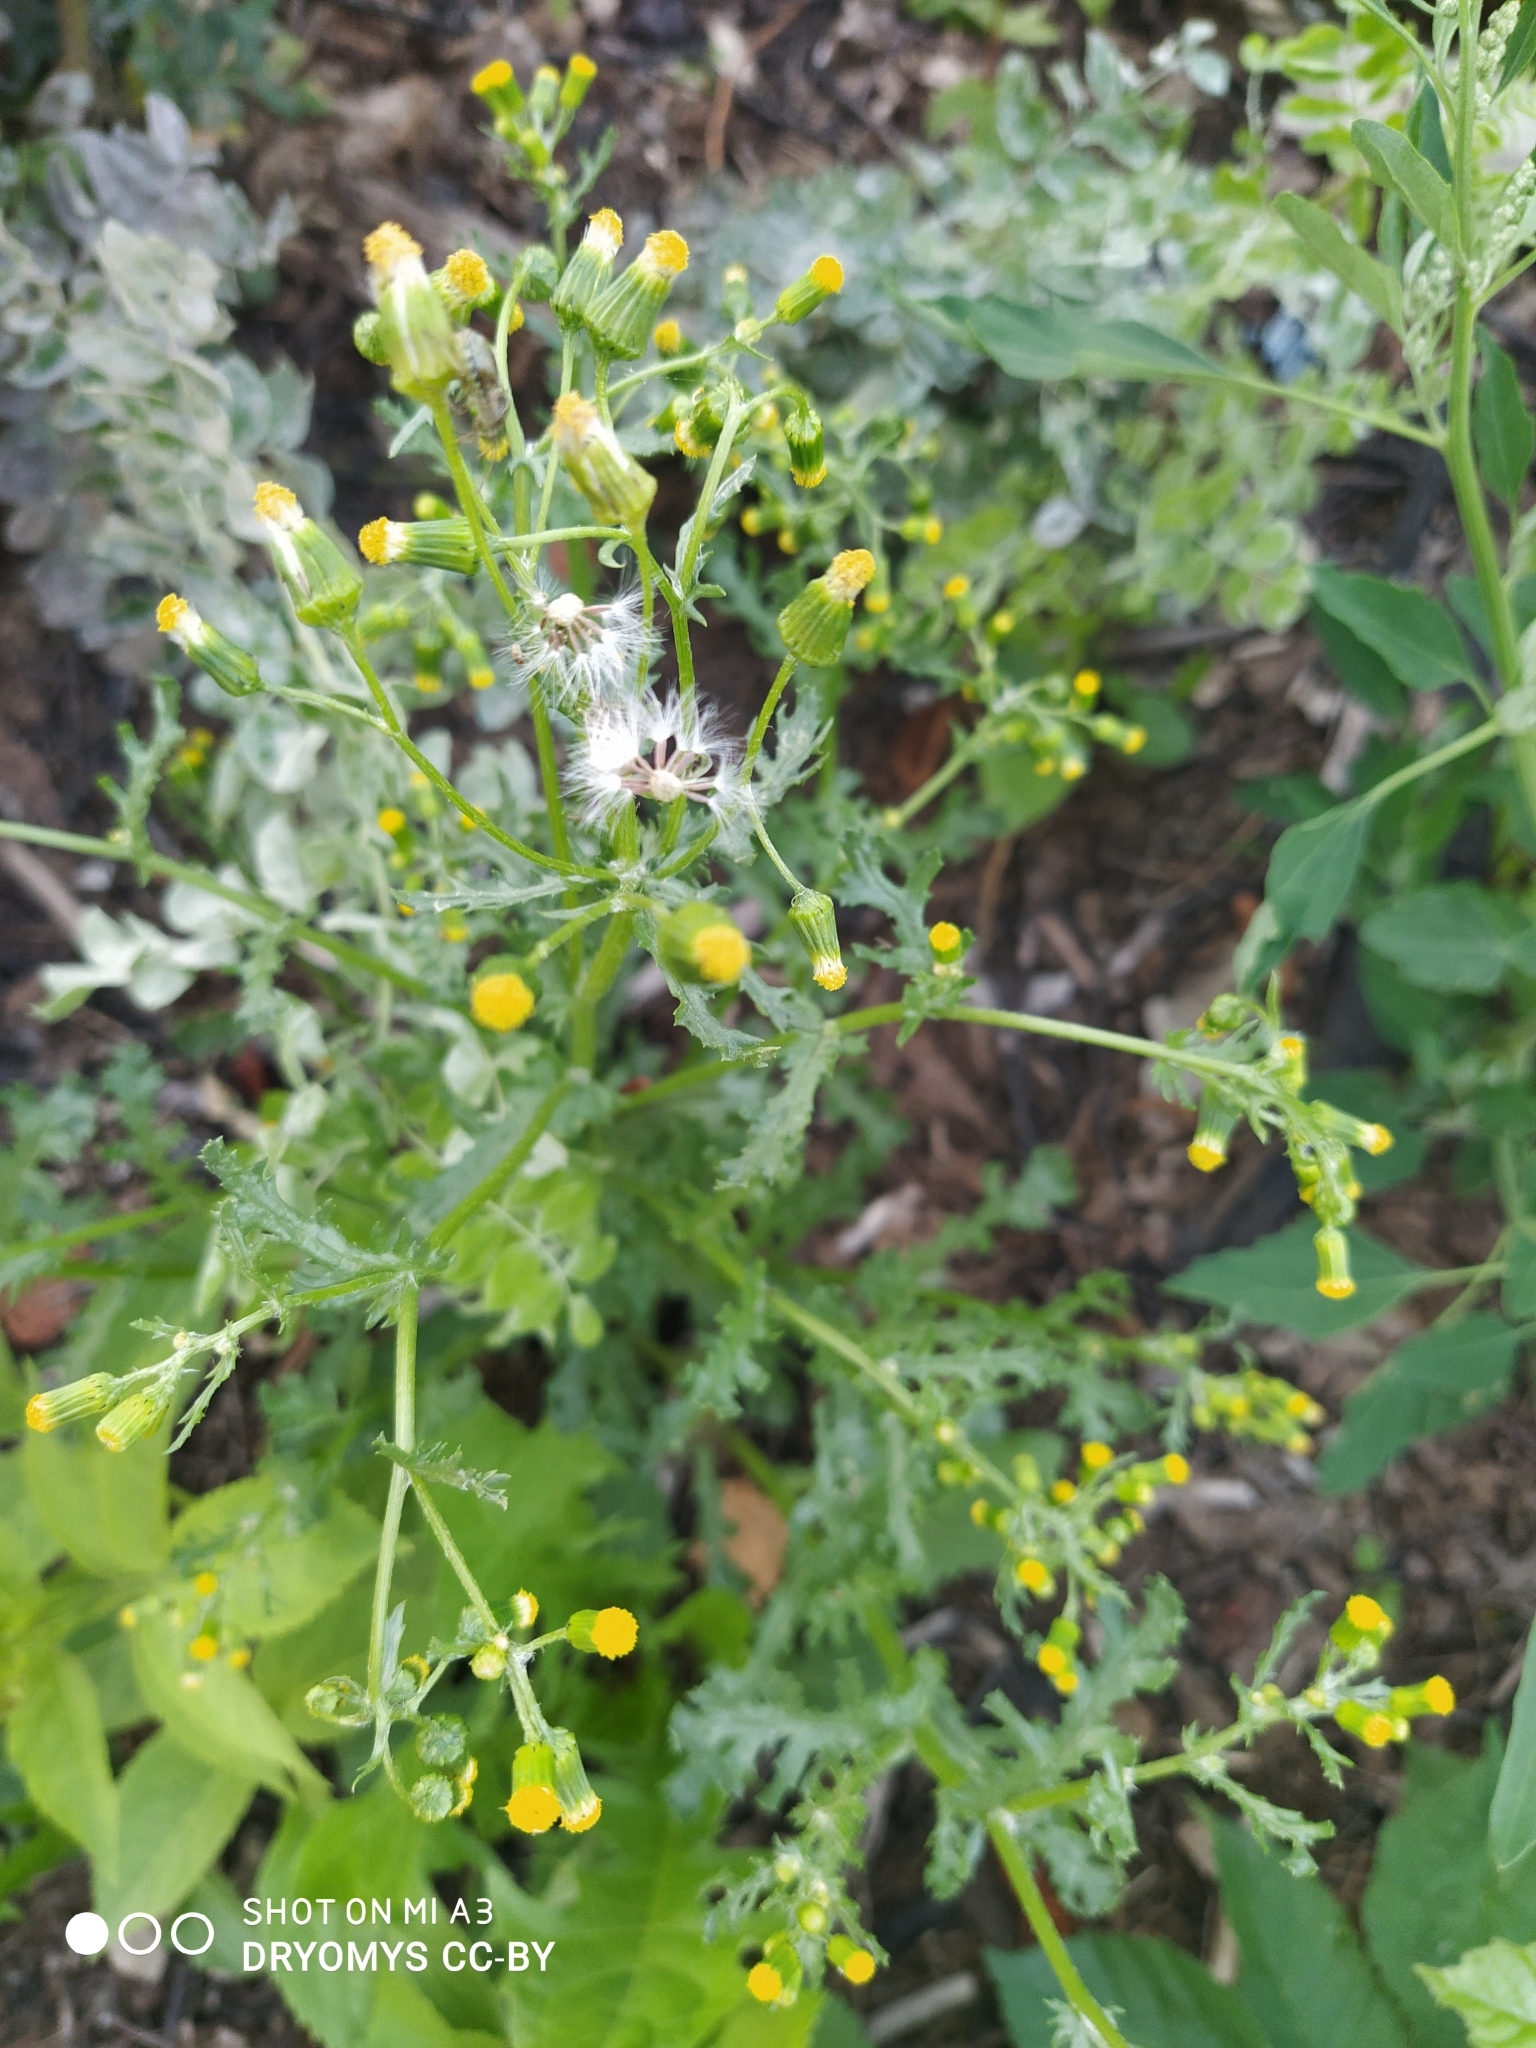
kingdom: Plantae
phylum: Tracheophyta
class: Magnoliopsida
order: Asterales
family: Asteraceae
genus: Senecio
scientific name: Senecio vulgaris
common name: Old-man-in-the-spring
